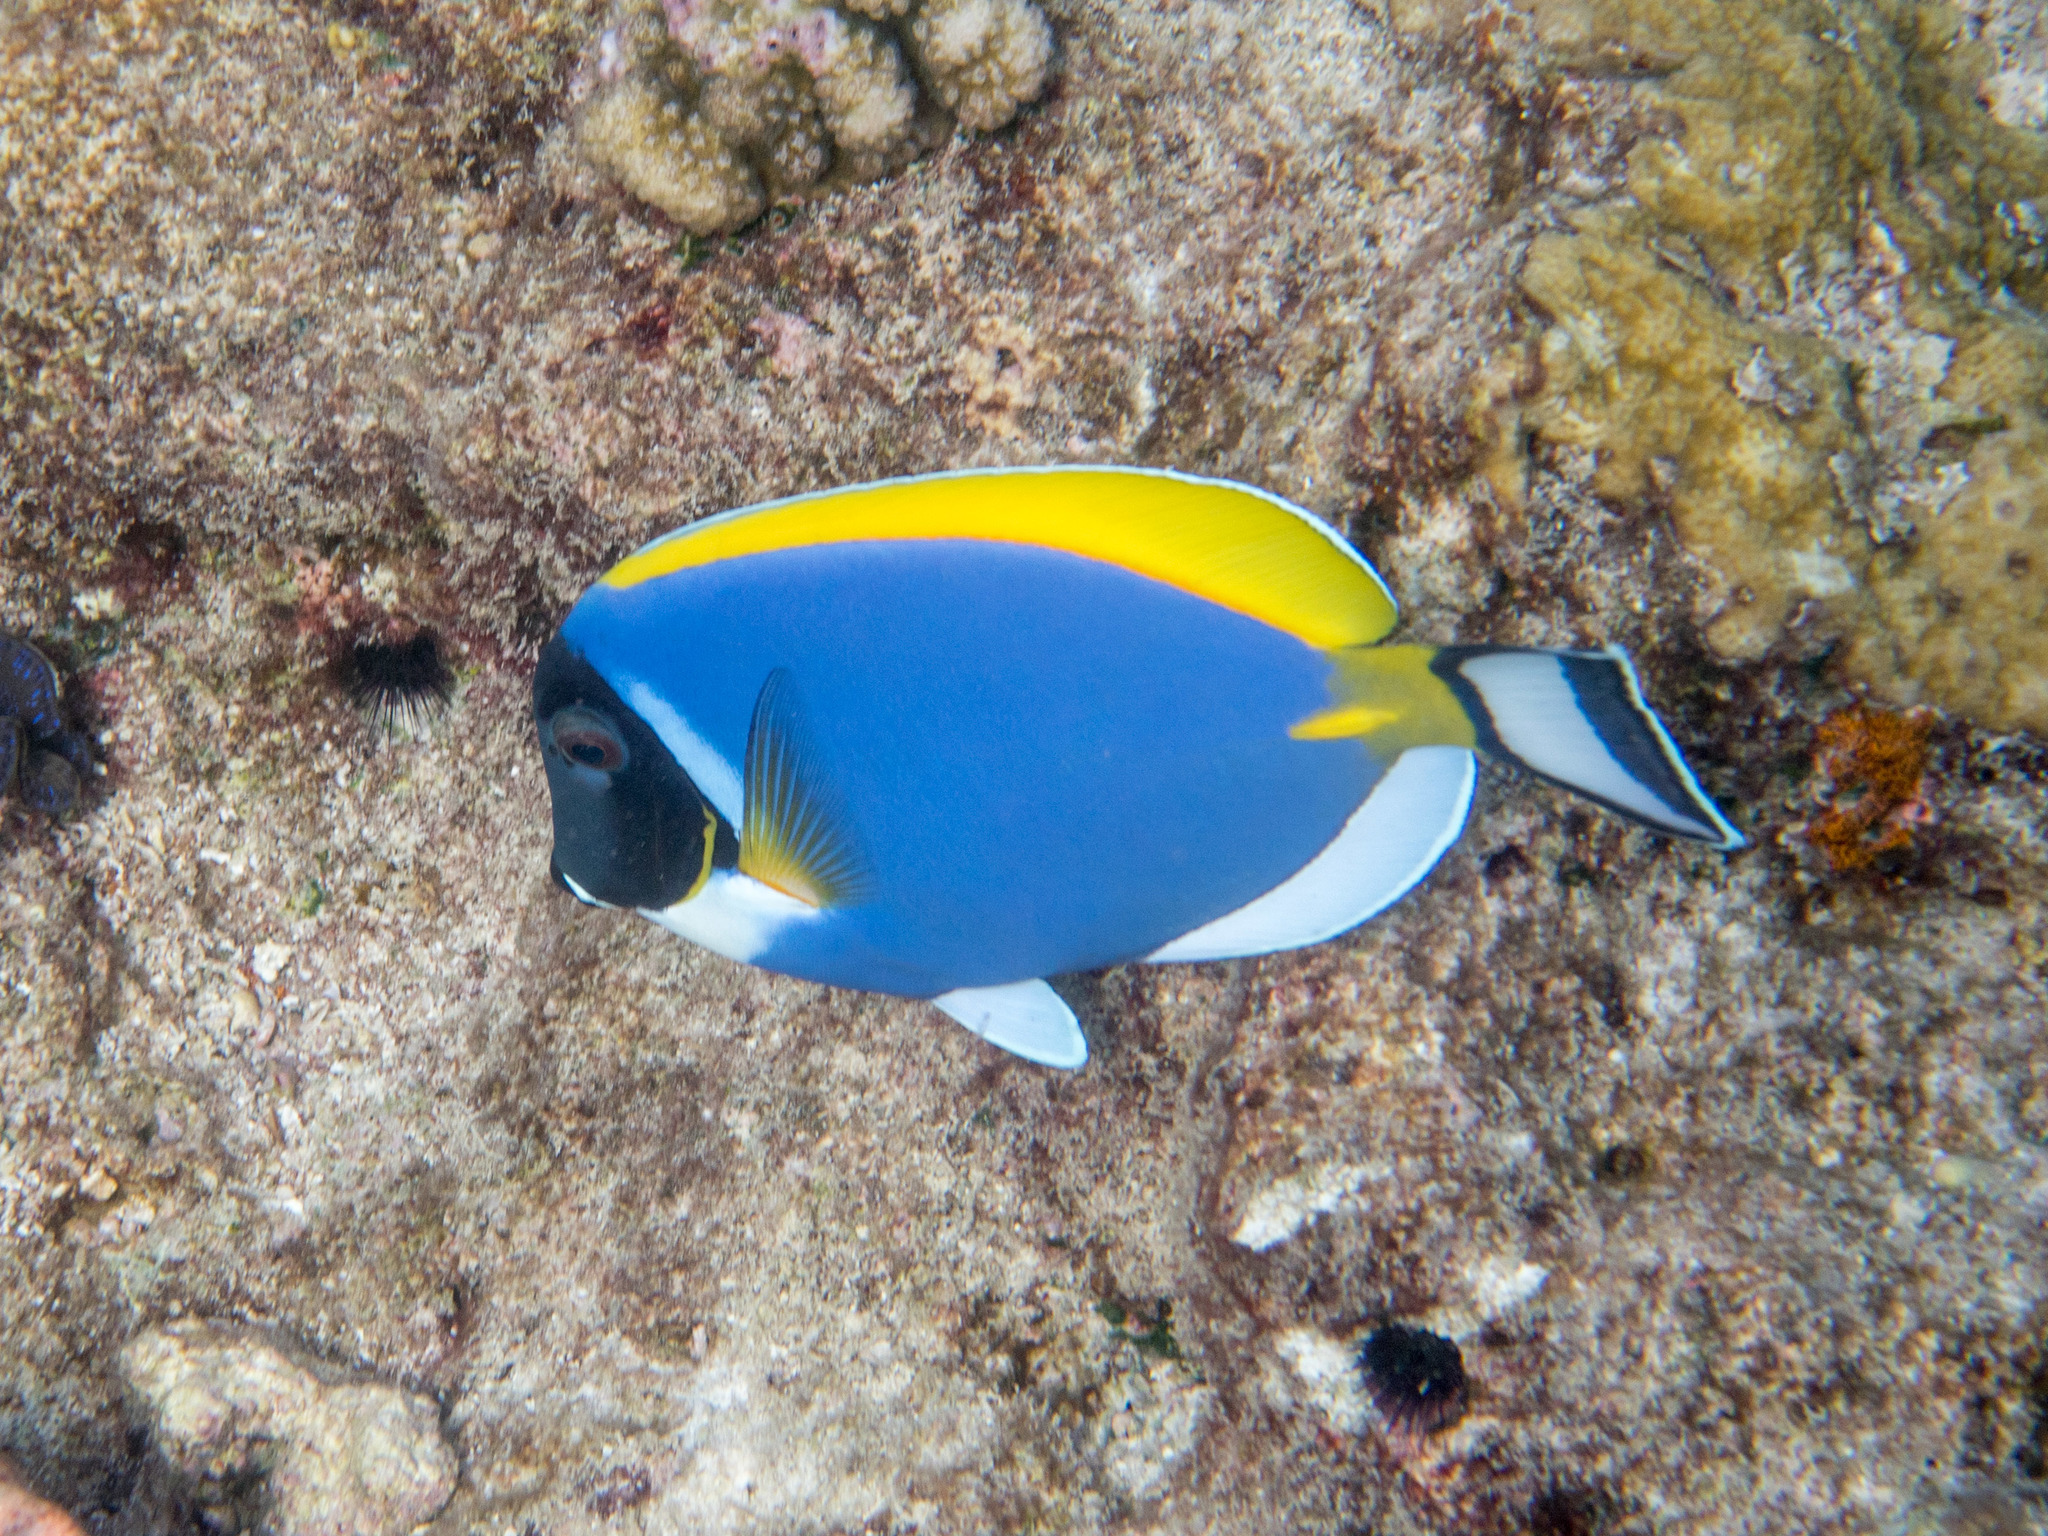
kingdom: Animalia
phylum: Chordata
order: Perciformes
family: Acanthuridae
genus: Acanthurus
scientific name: Acanthurus leucosternon
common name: Blue surgeonfish
